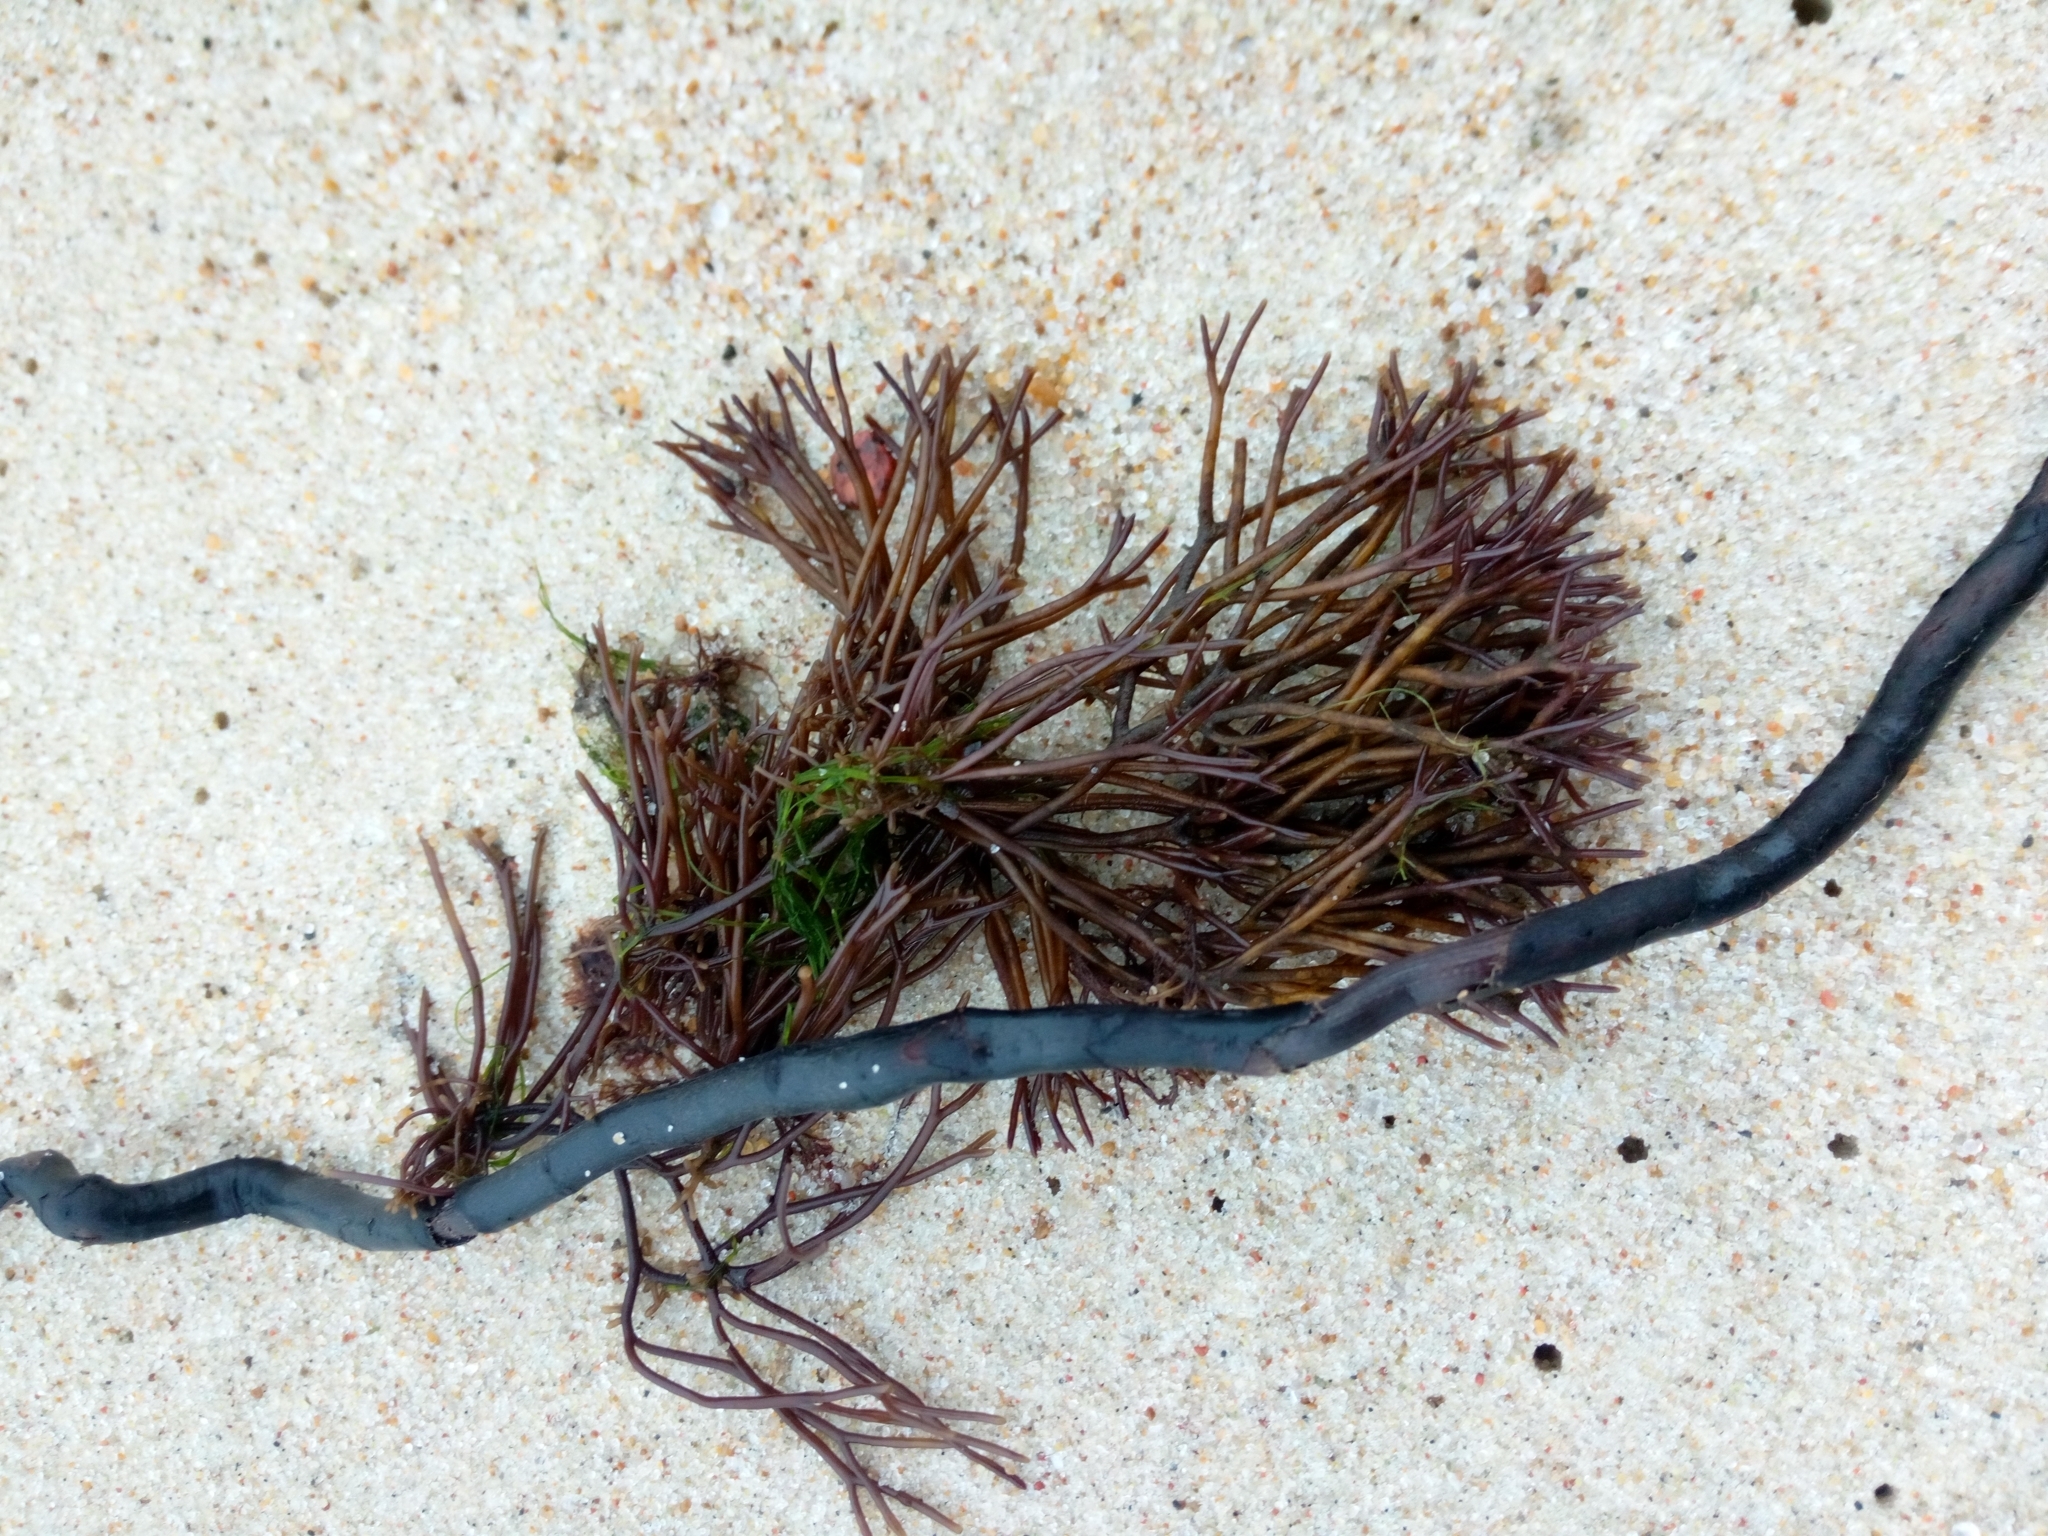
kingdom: Plantae
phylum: Rhodophyta
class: Florideophyceae
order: Gigartinales
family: Furcellariaceae
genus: Furcellaria
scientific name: Furcellaria lumbricalis
